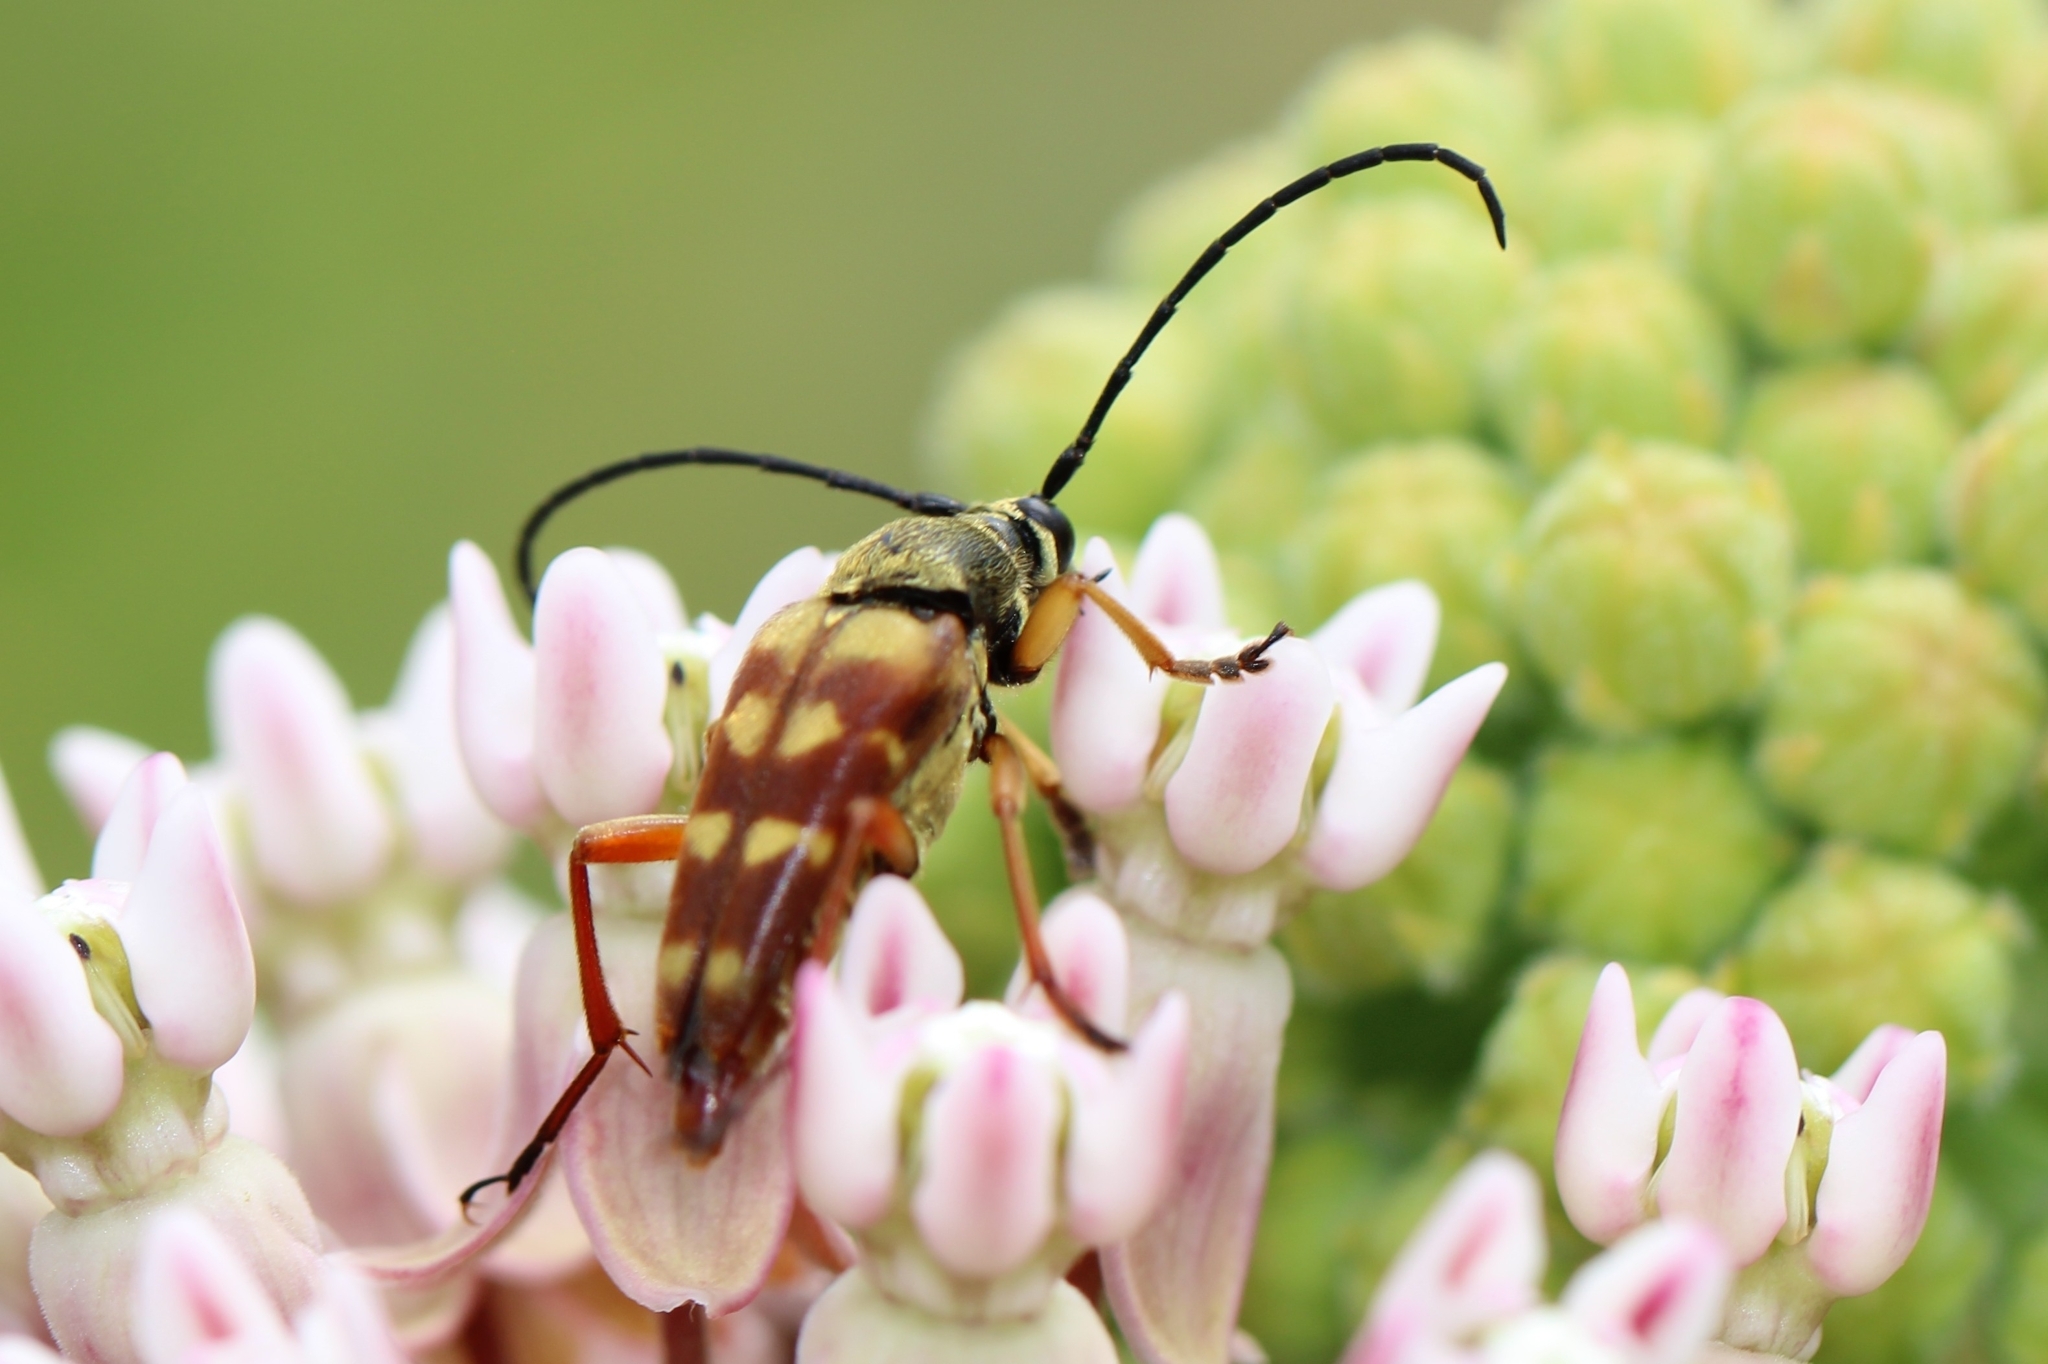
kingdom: Animalia
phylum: Arthropoda
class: Insecta
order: Coleoptera
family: Cerambycidae
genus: Typocerus
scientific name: Typocerus velutinus
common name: Banded longhorn beetle
